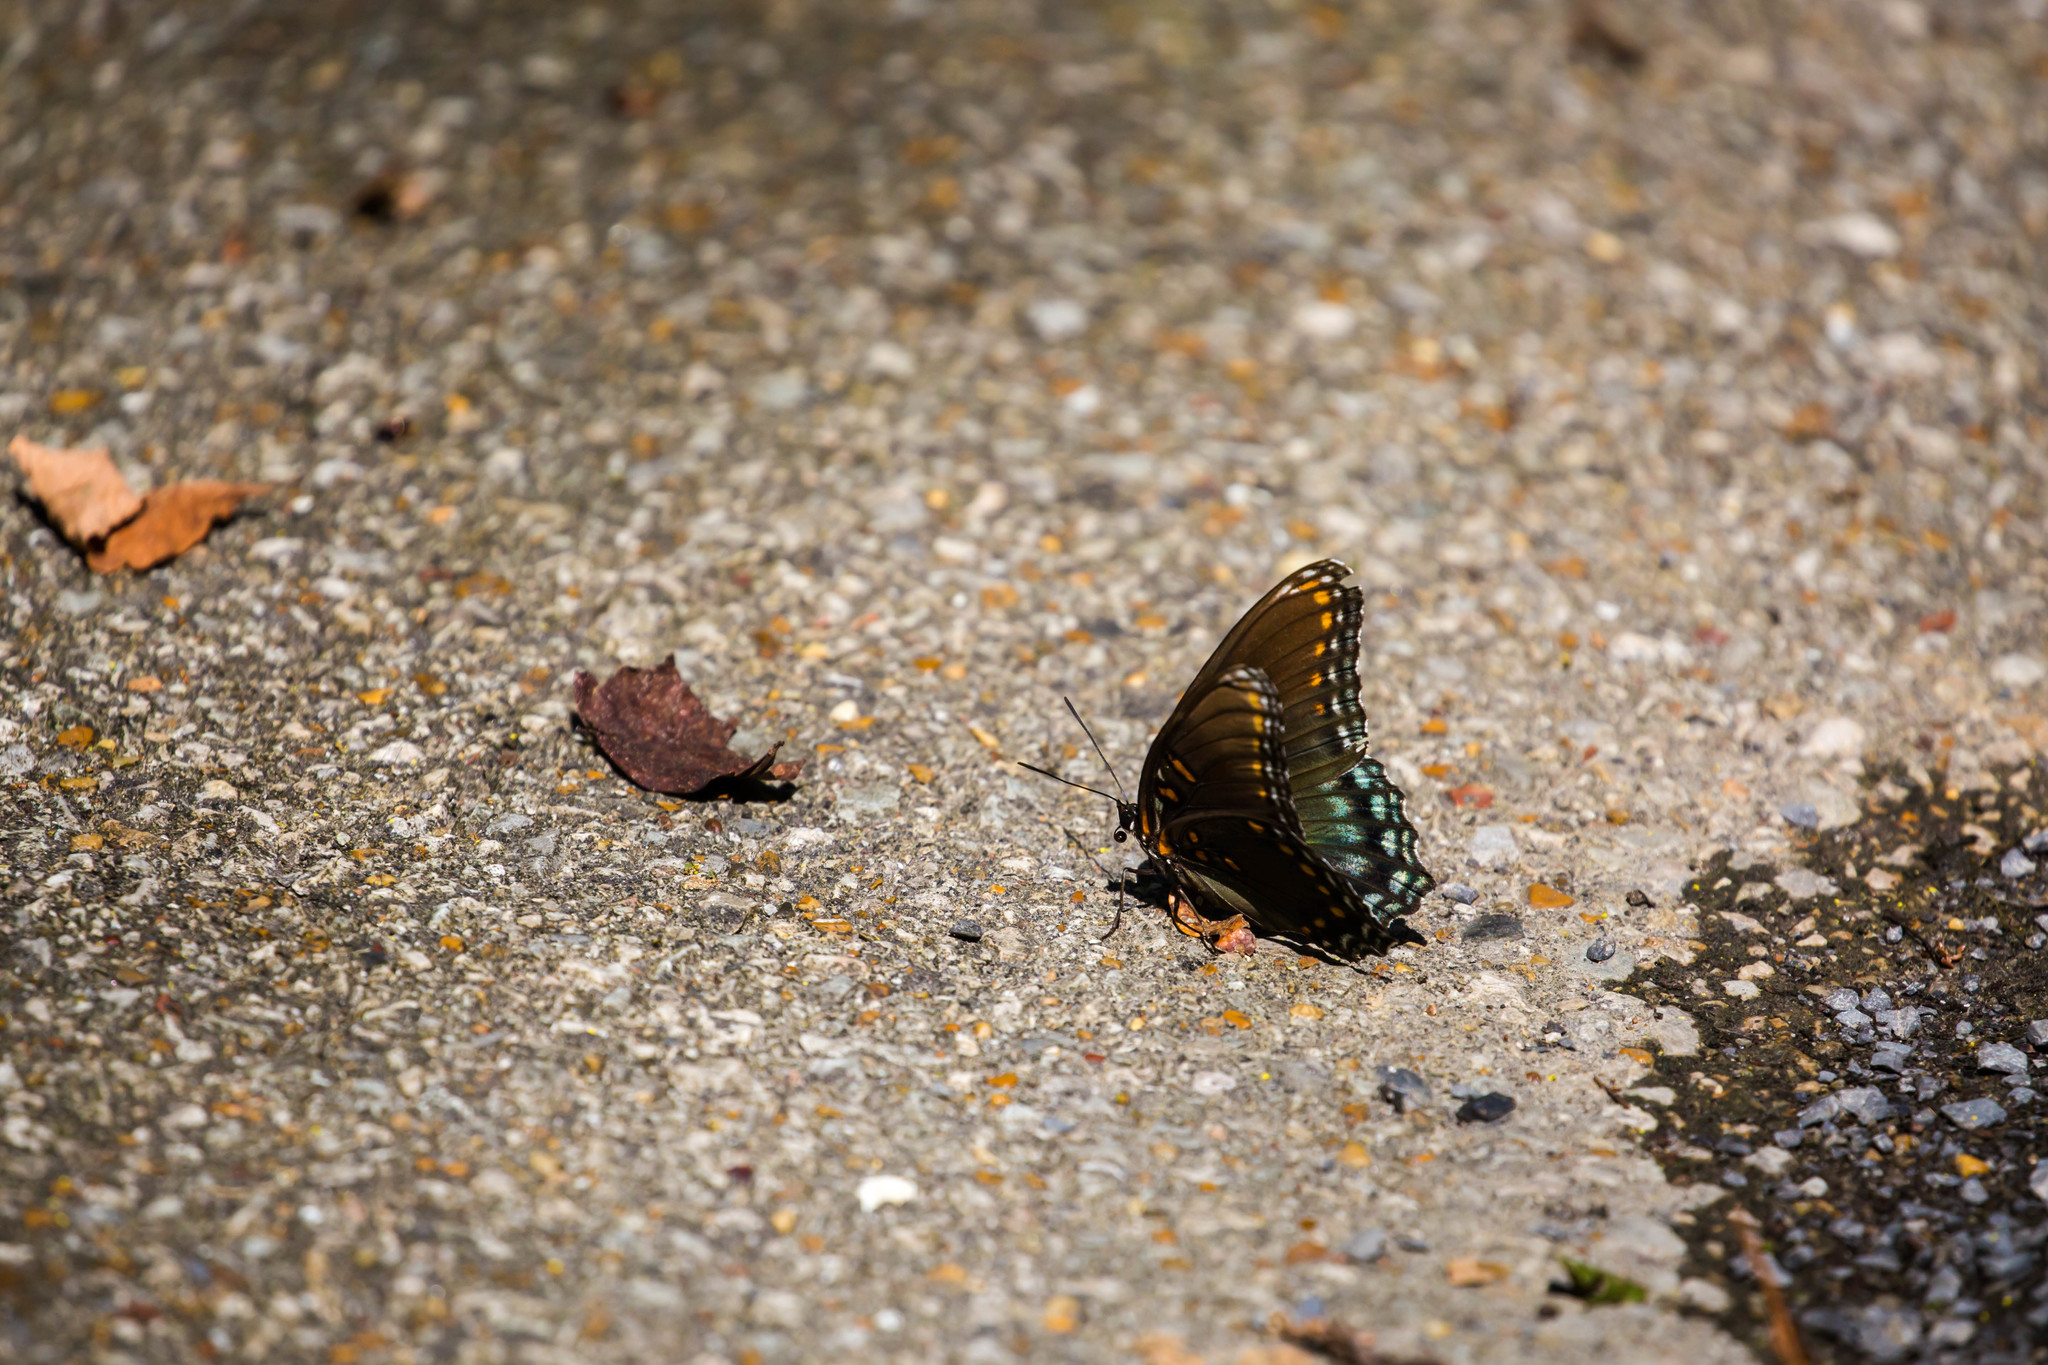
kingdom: Animalia
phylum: Arthropoda
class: Insecta
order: Lepidoptera
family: Nymphalidae
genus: Limenitis
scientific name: Limenitis astyanax
